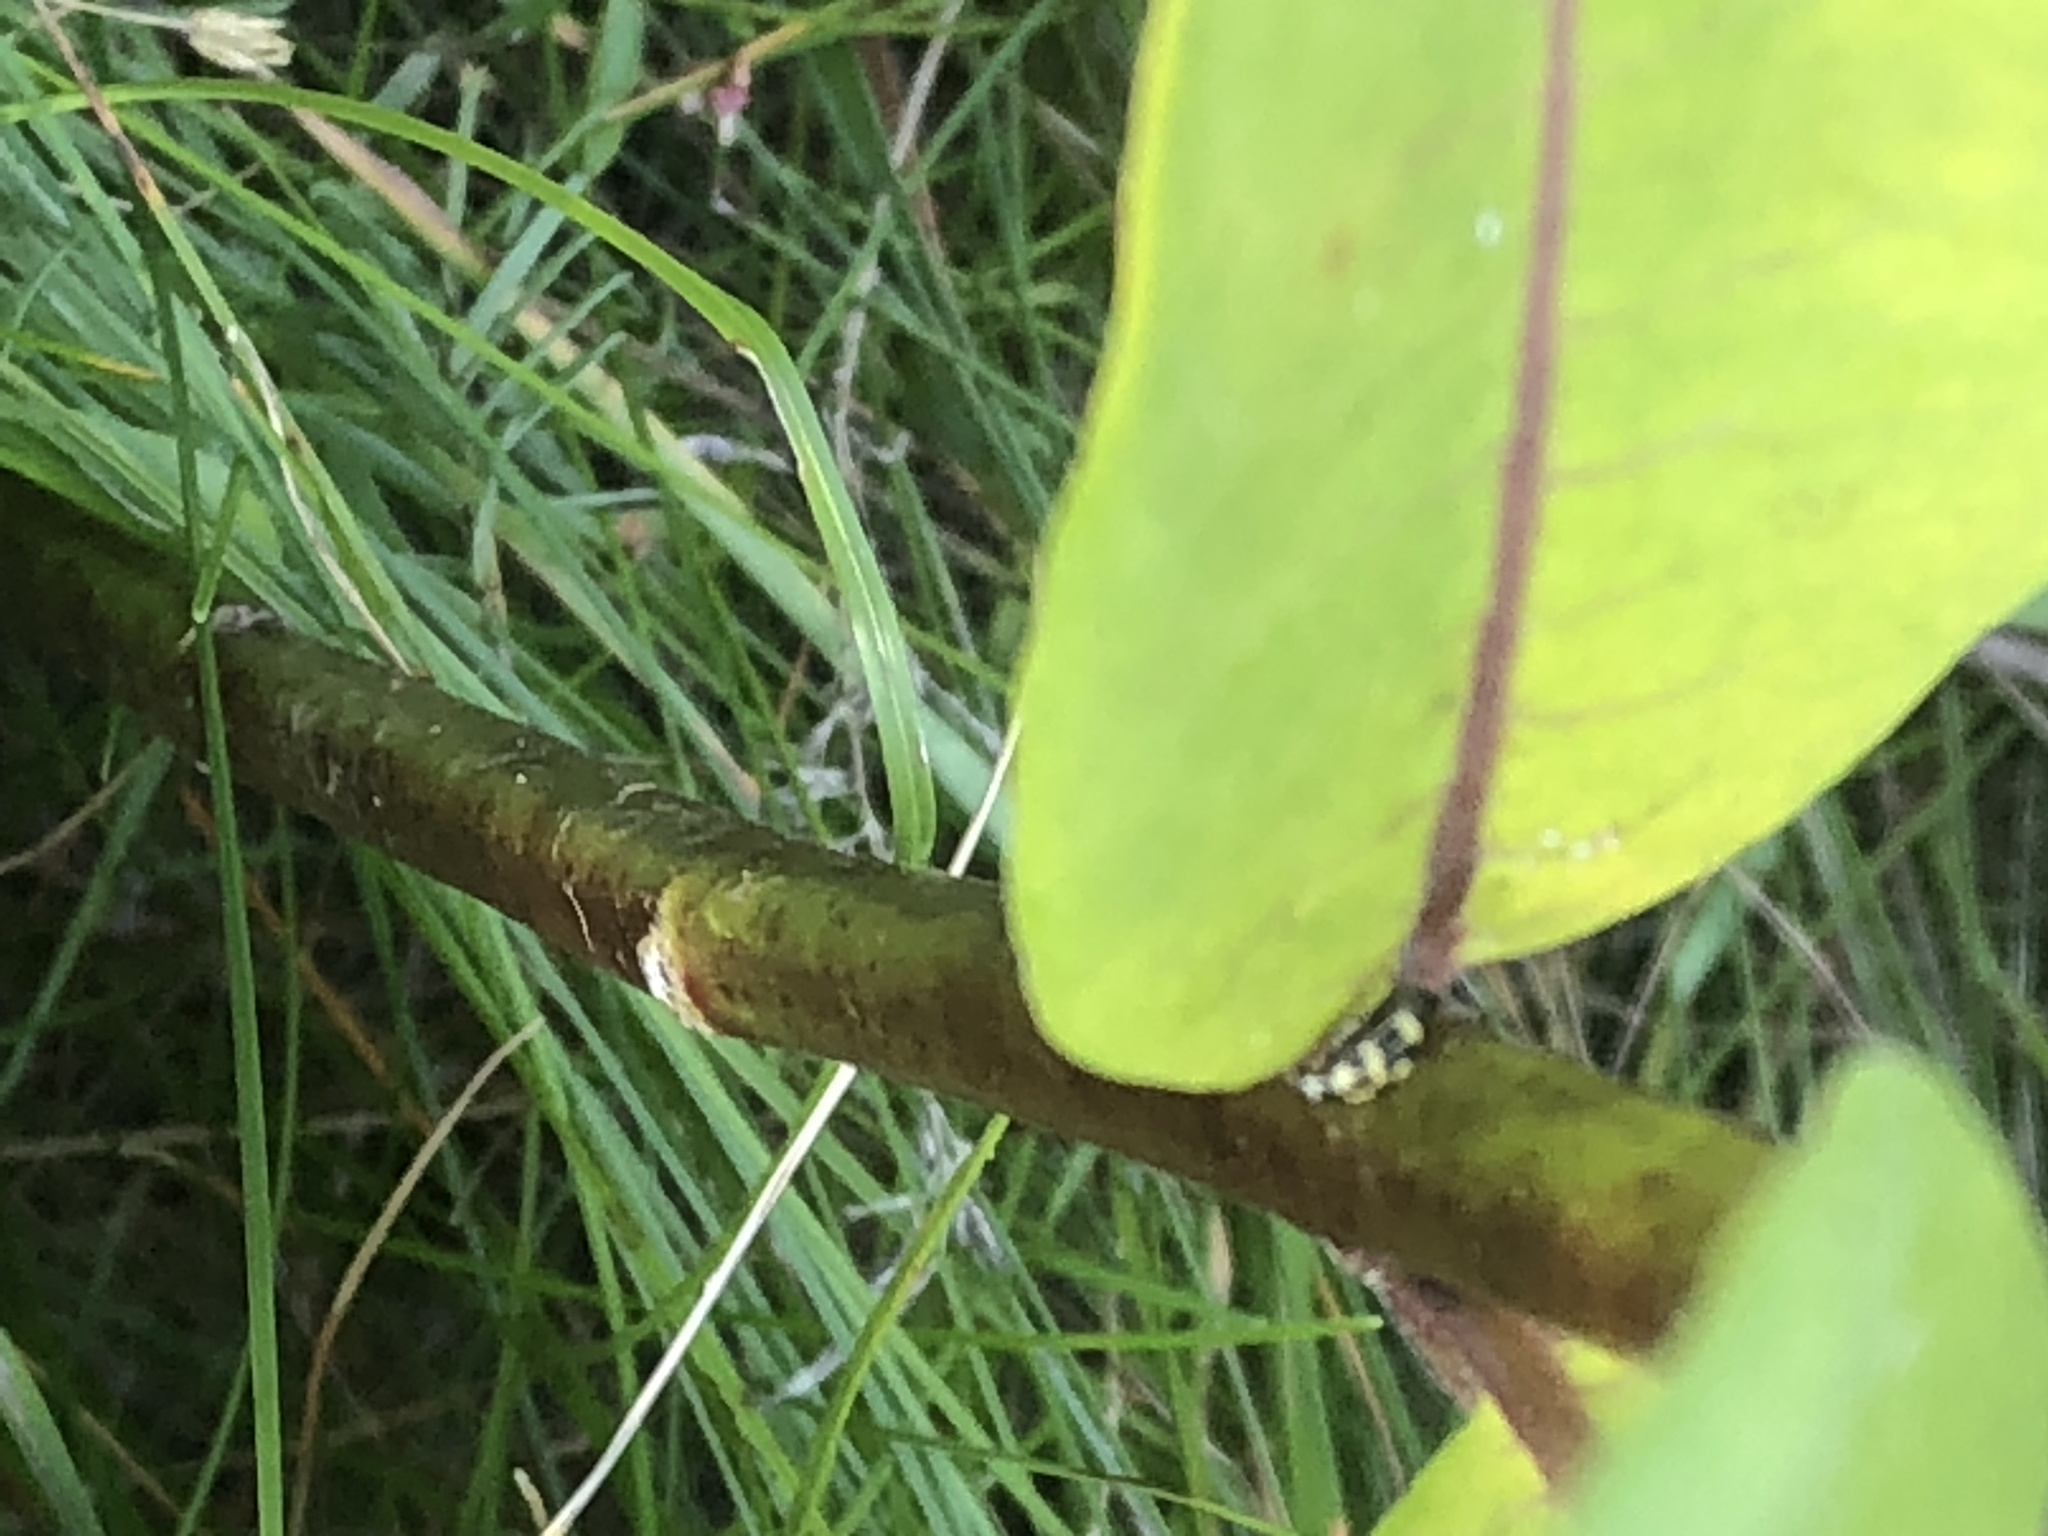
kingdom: Animalia
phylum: Arthropoda
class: Insecta
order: Coleoptera
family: Coccinellidae
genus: Propylaea
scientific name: Propylaea quatuordecimpunctata
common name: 14-spotted ladybird beetle
